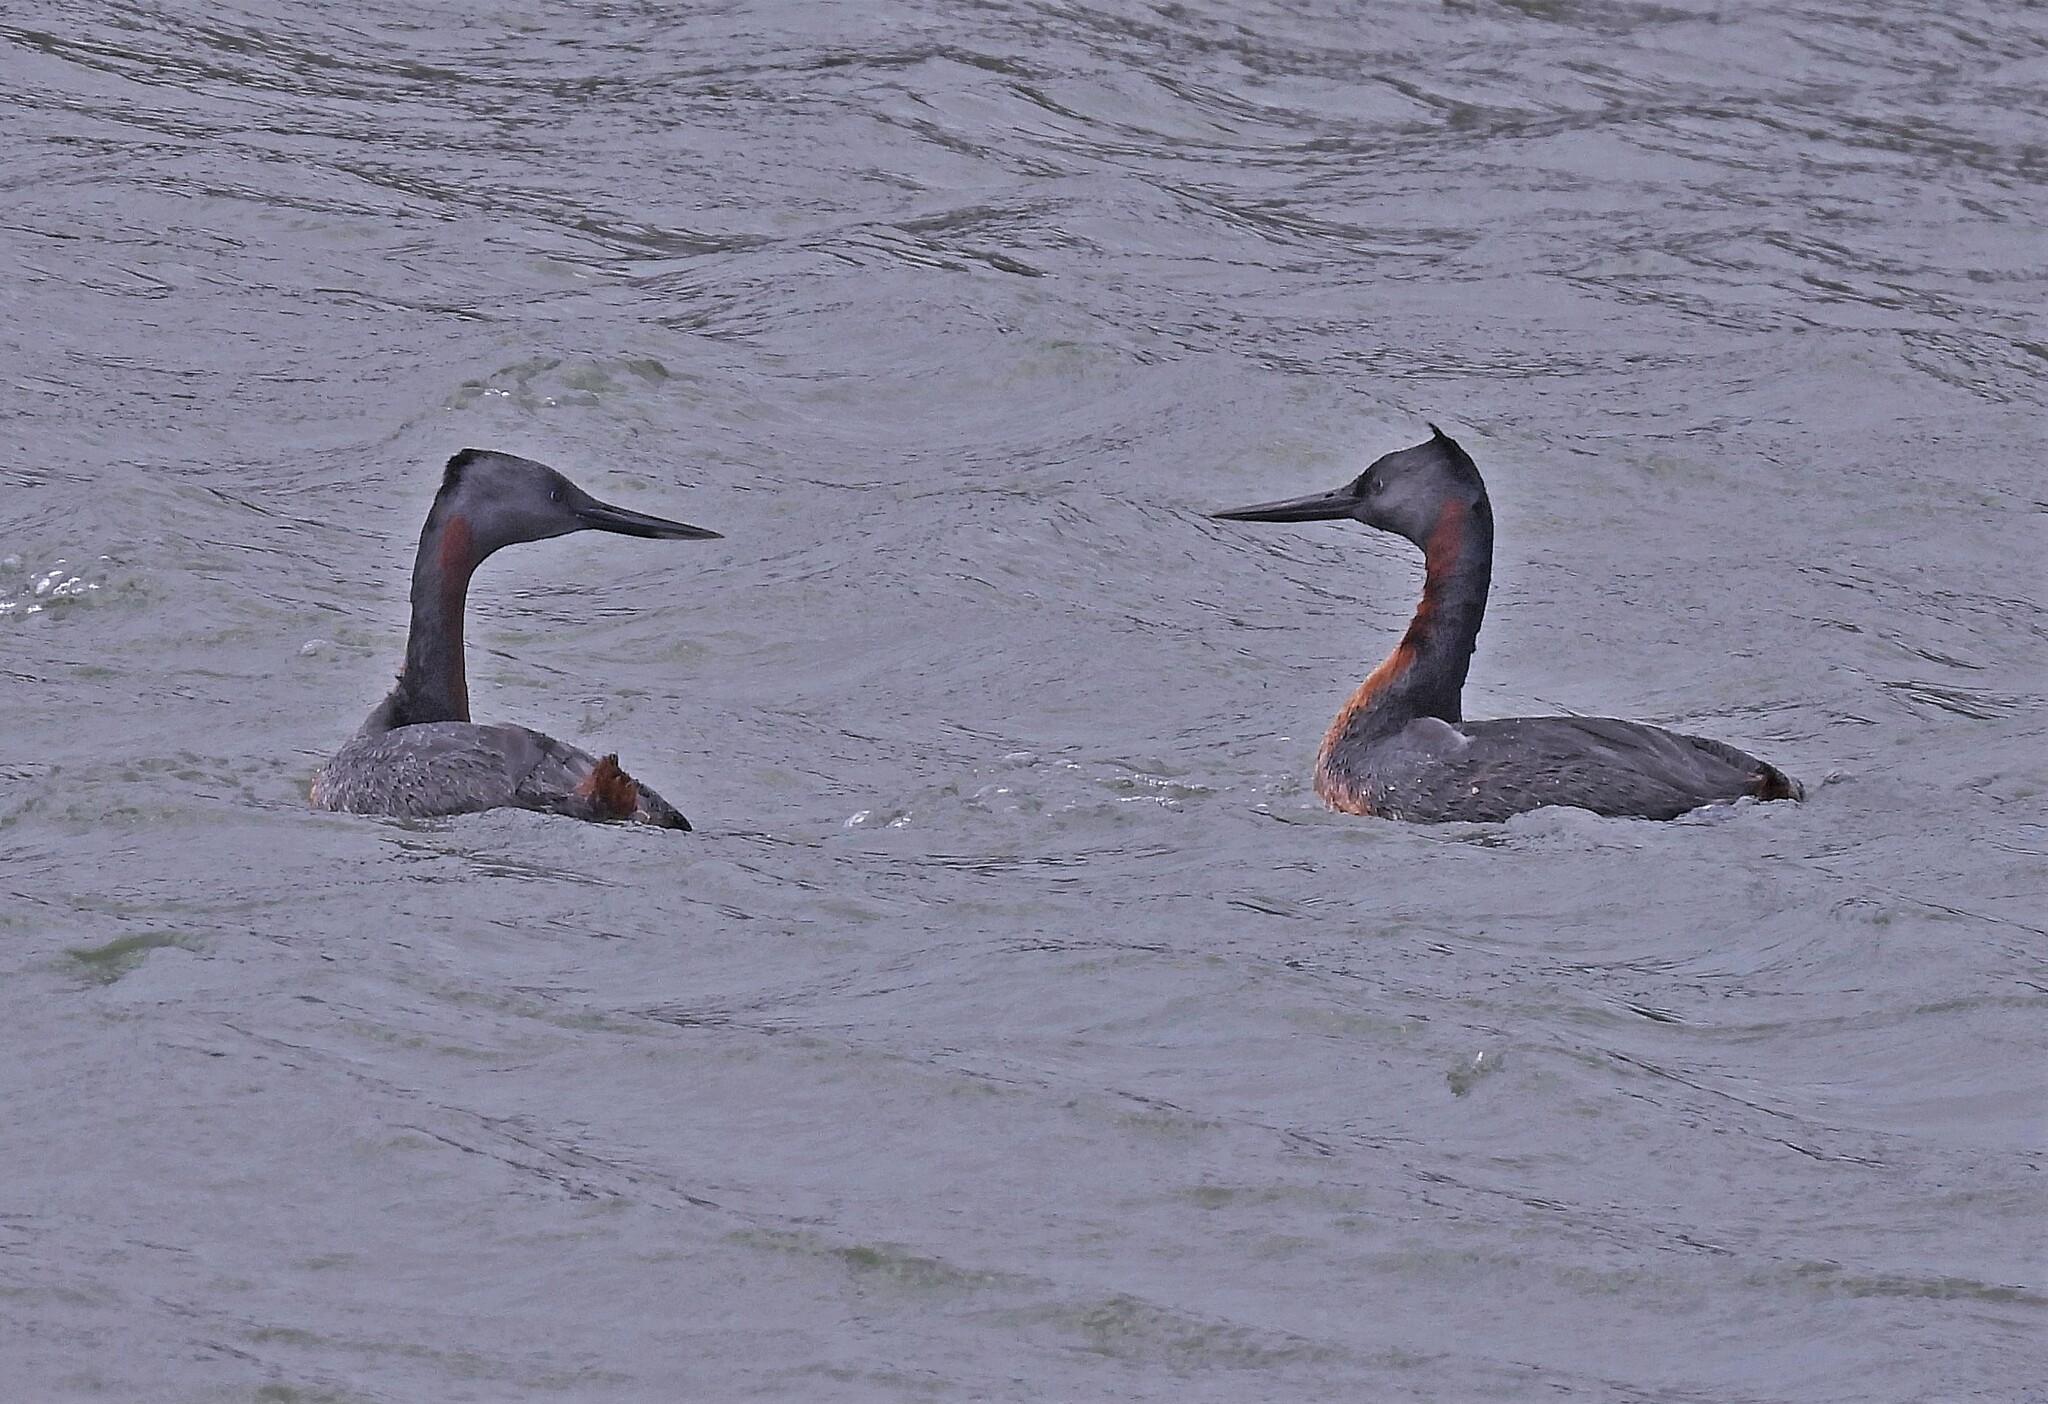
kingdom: Animalia
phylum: Chordata
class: Aves
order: Podicipediformes
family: Podicipedidae
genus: Podiceps
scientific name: Podiceps major
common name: Great grebe
